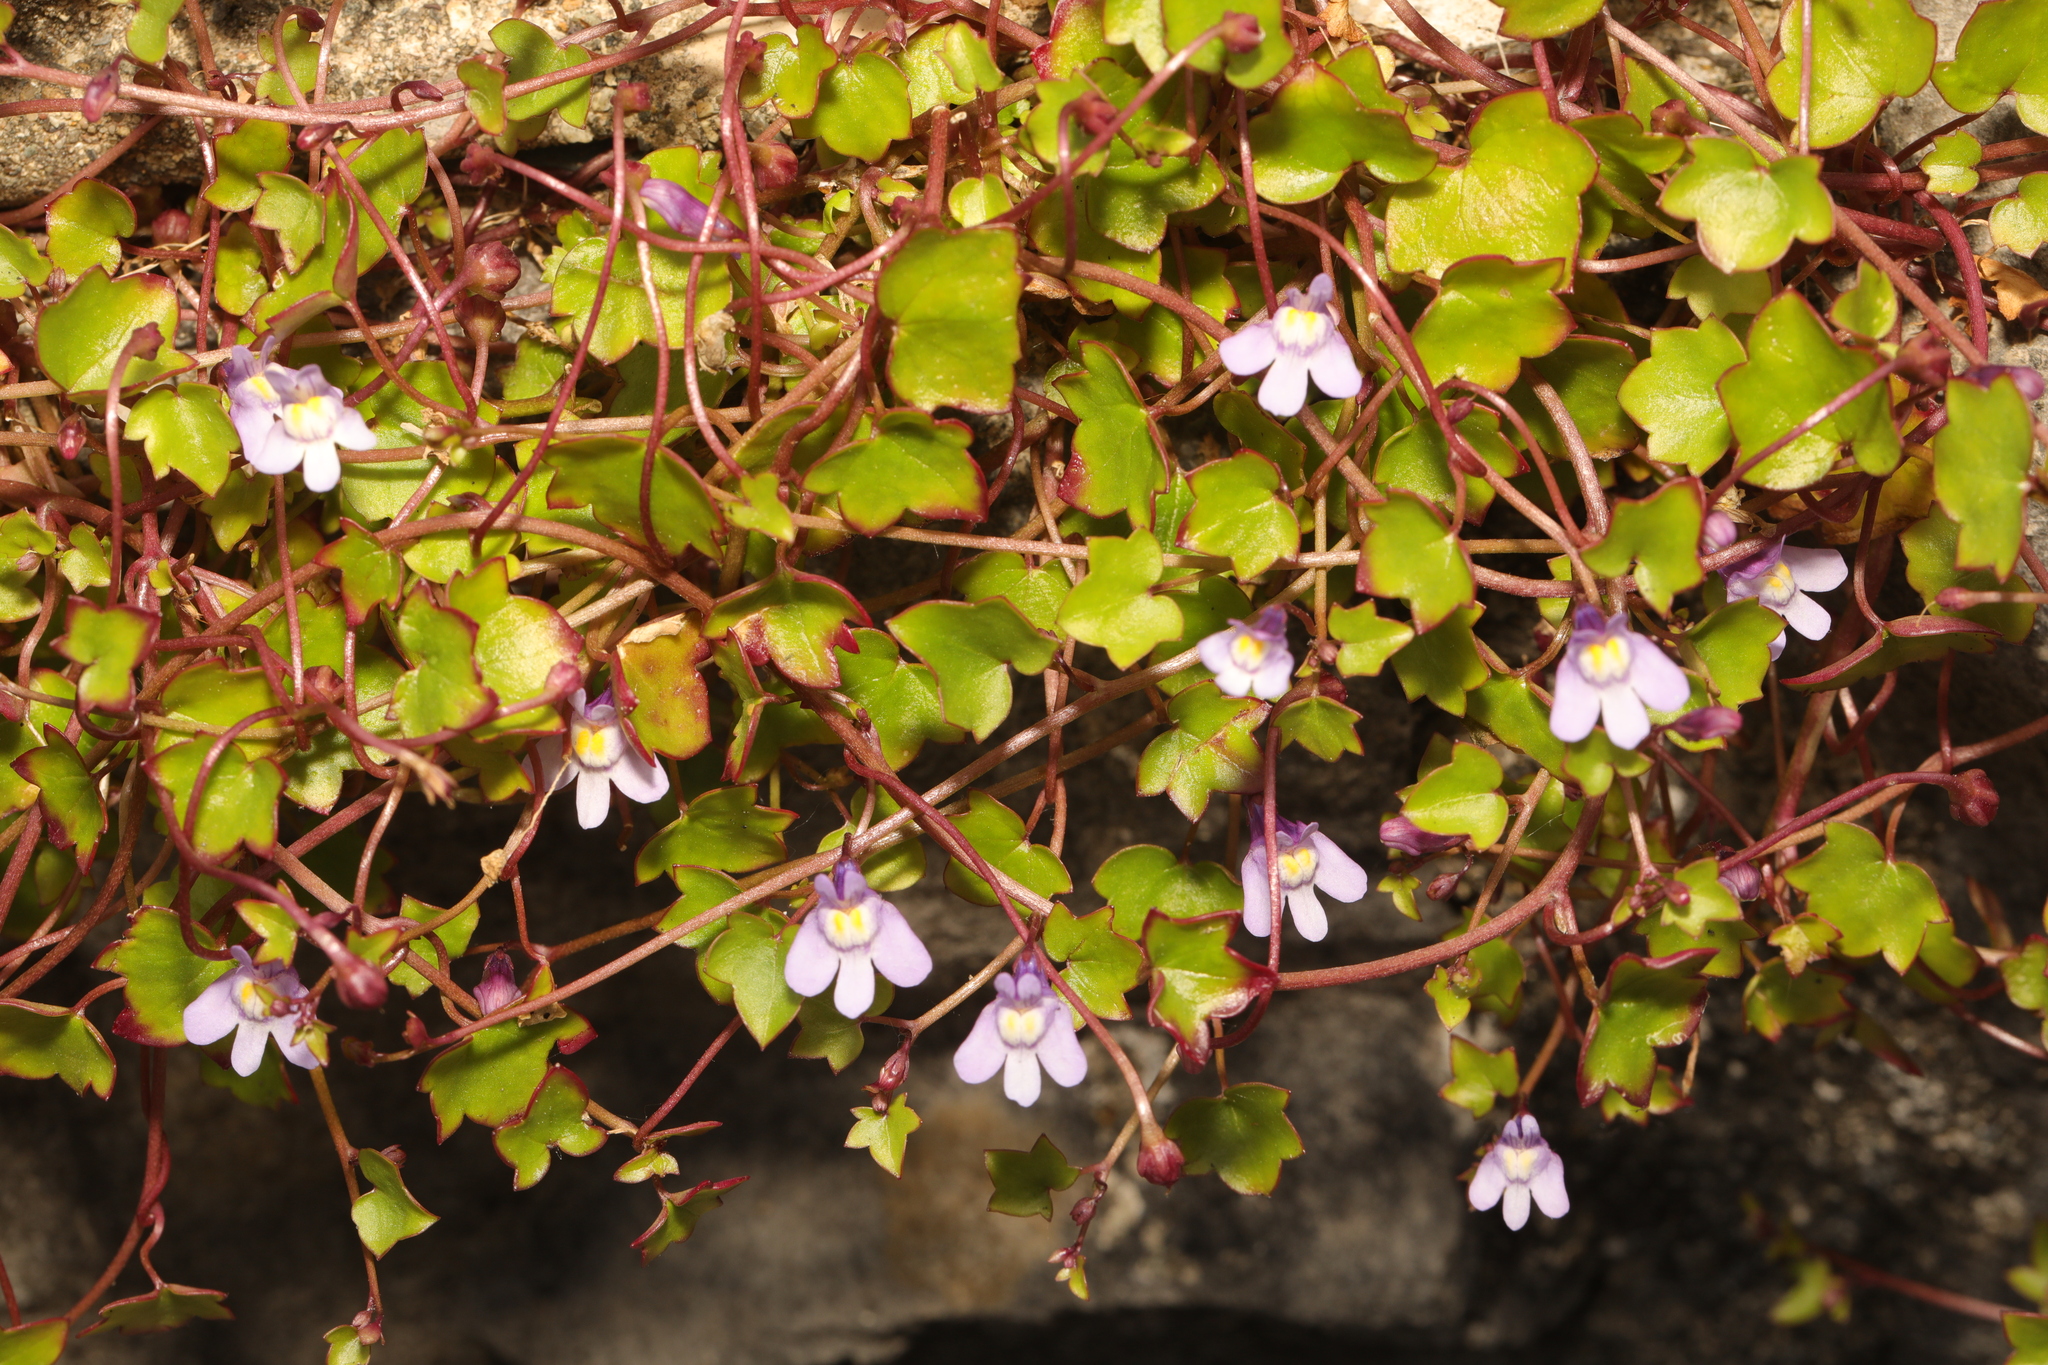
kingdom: Plantae
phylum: Tracheophyta
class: Magnoliopsida
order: Lamiales
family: Plantaginaceae
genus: Cymbalaria
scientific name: Cymbalaria muralis
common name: Ivy-leaved toadflax
